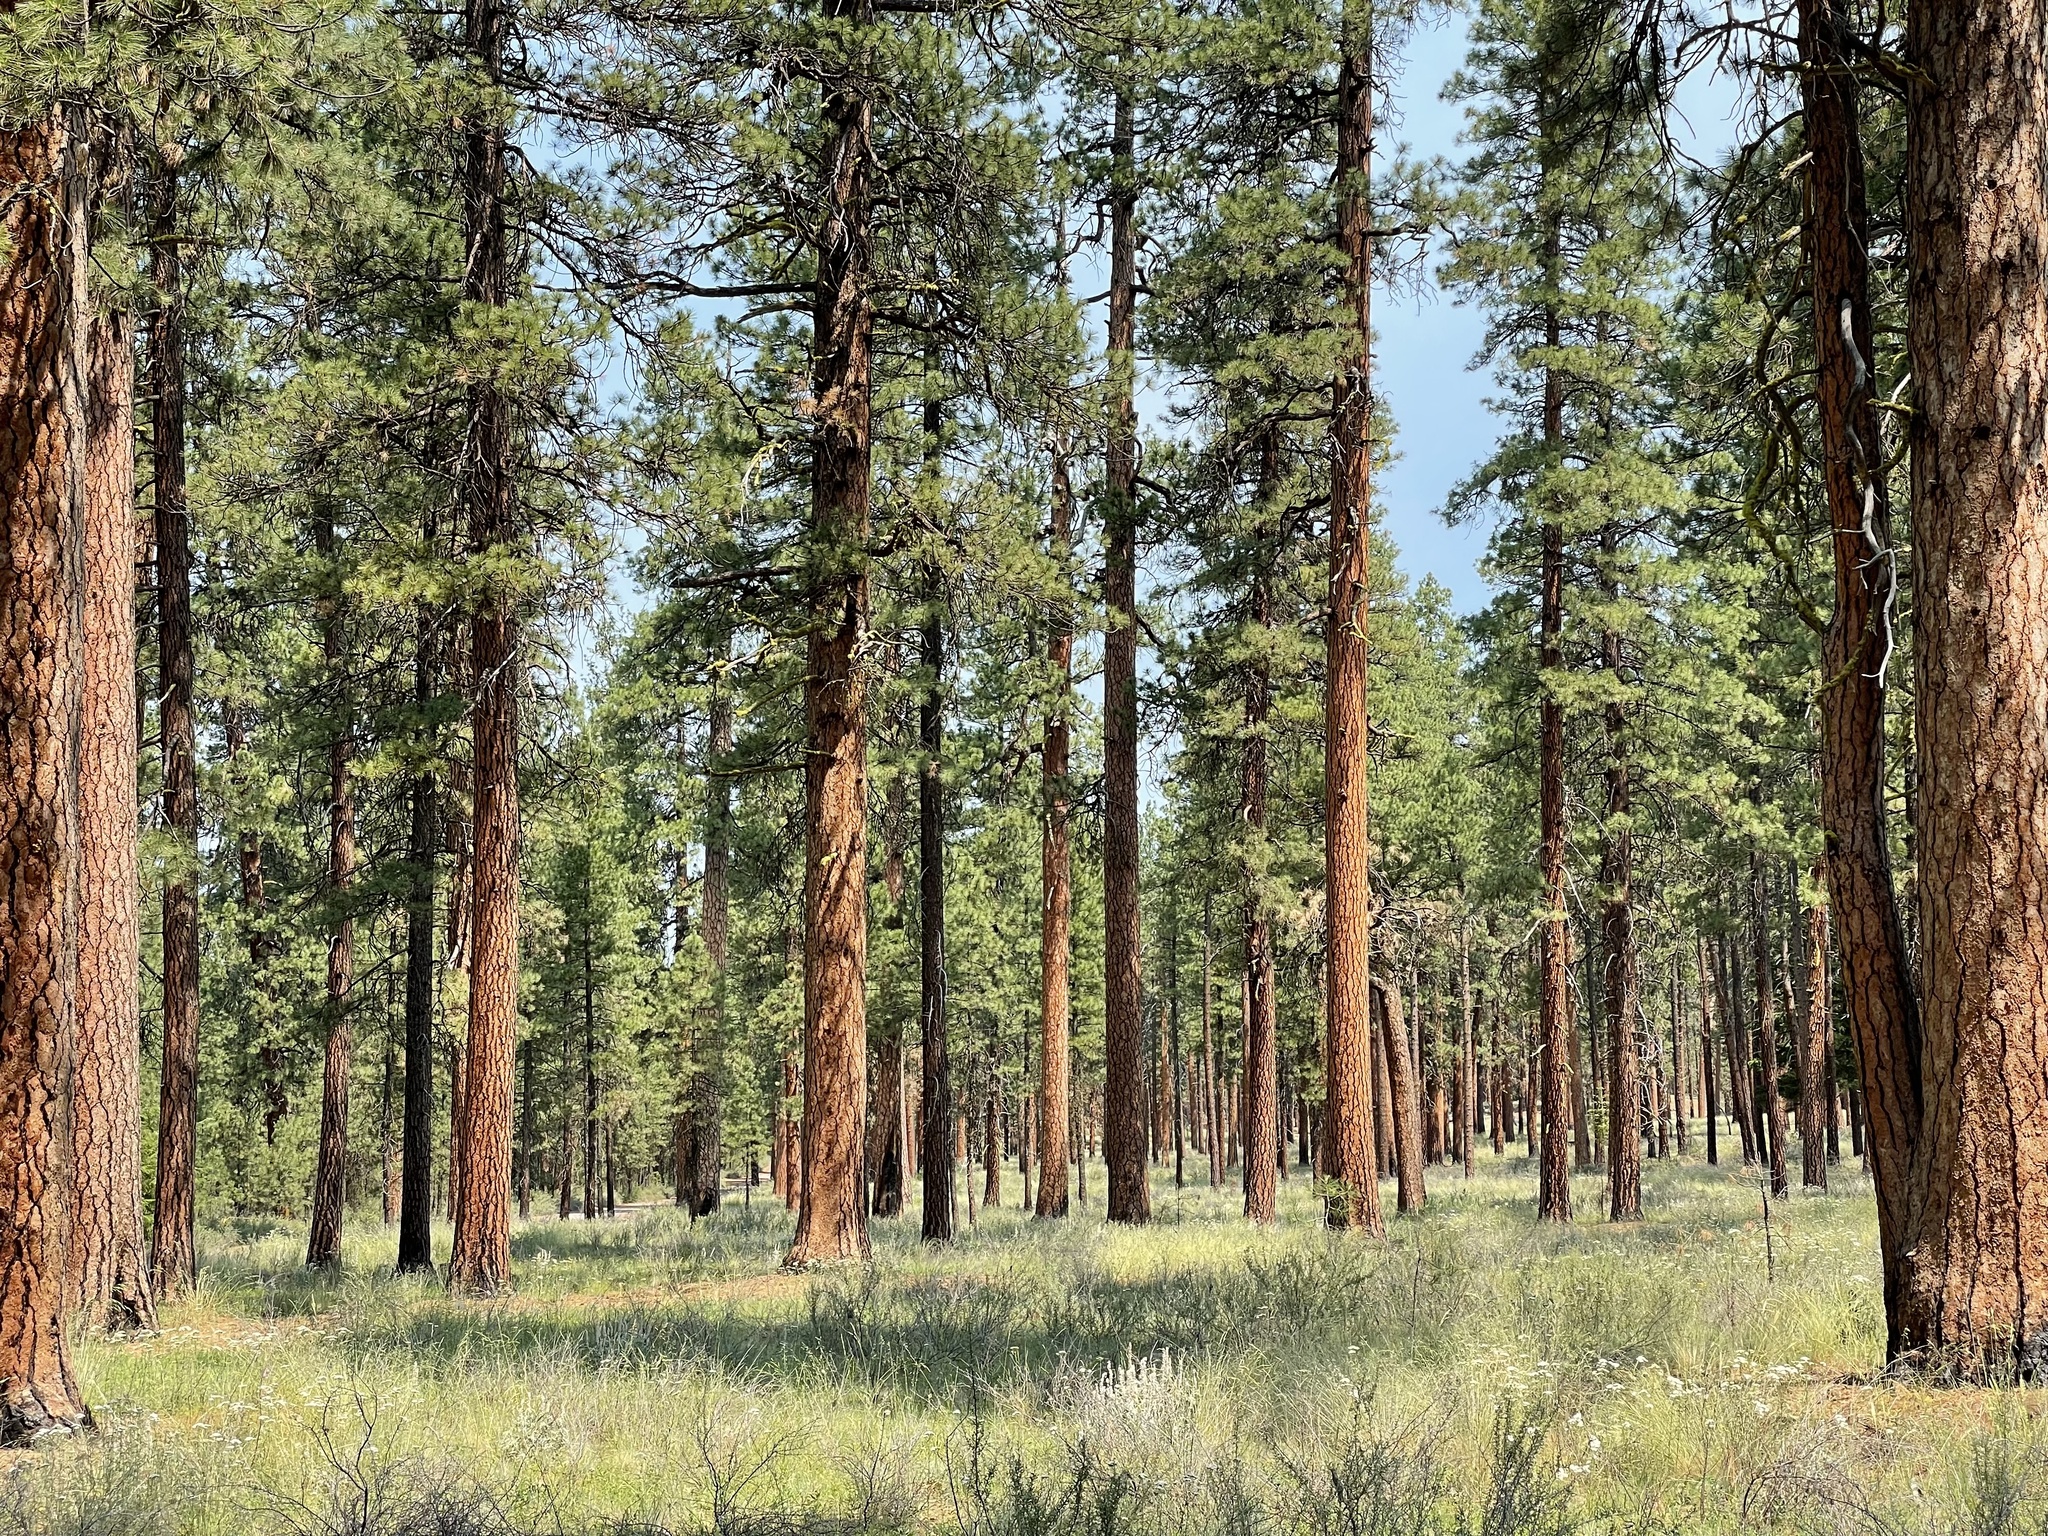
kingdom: Plantae
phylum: Tracheophyta
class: Pinopsida
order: Pinales
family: Pinaceae
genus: Pinus
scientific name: Pinus ponderosa
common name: Western yellow-pine
